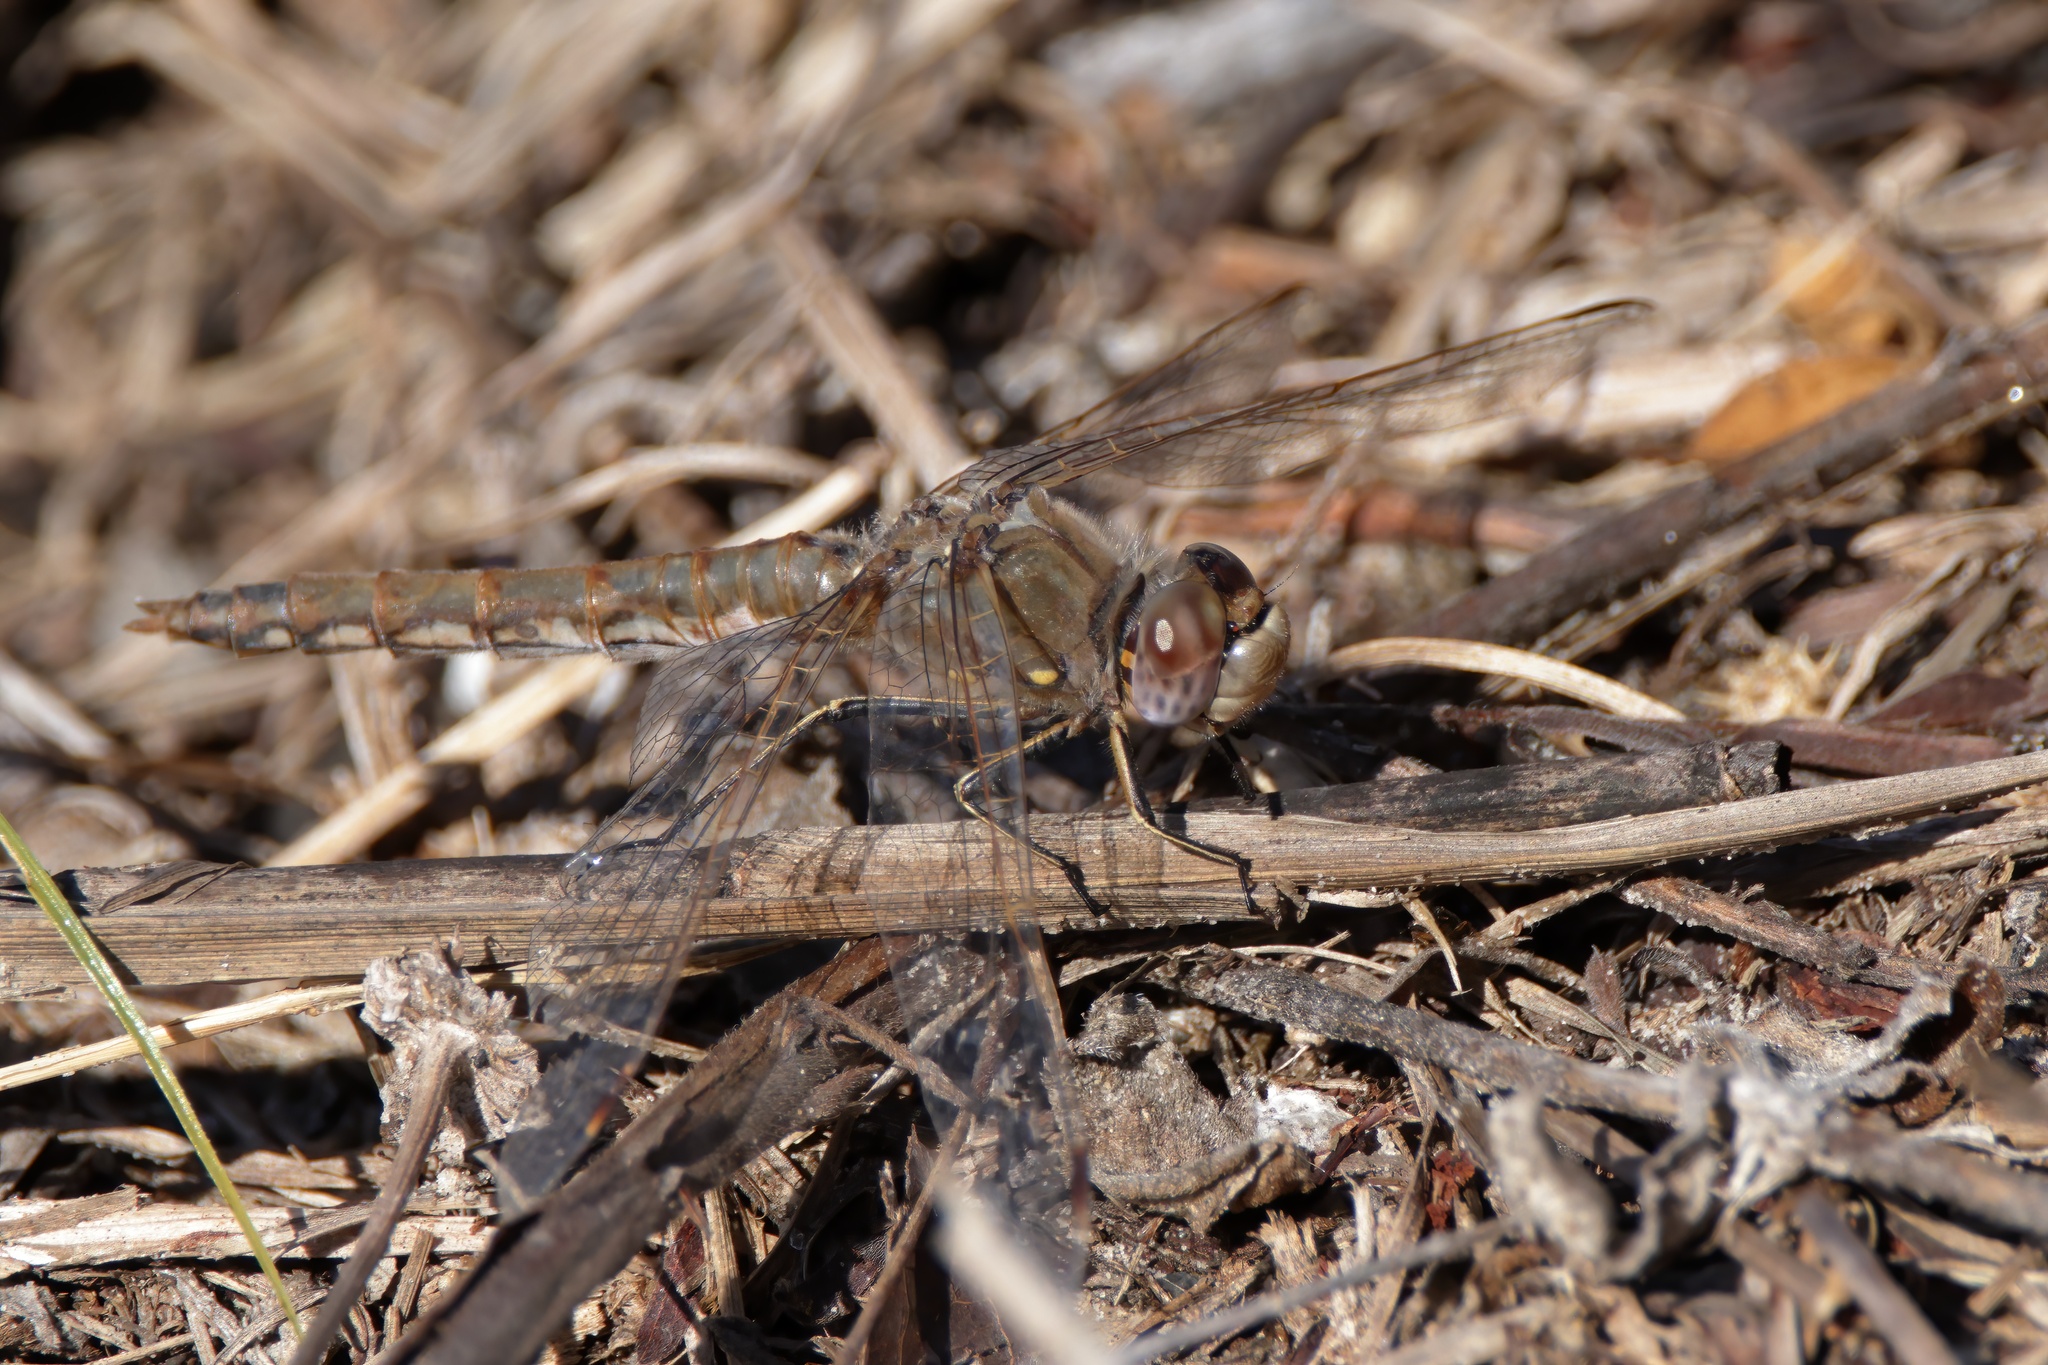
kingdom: Animalia
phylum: Arthropoda
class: Insecta
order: Odonata
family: Libellulidae
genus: Sympetrum
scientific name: Sympetrum corruptum
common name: Variegated meadowhawk
